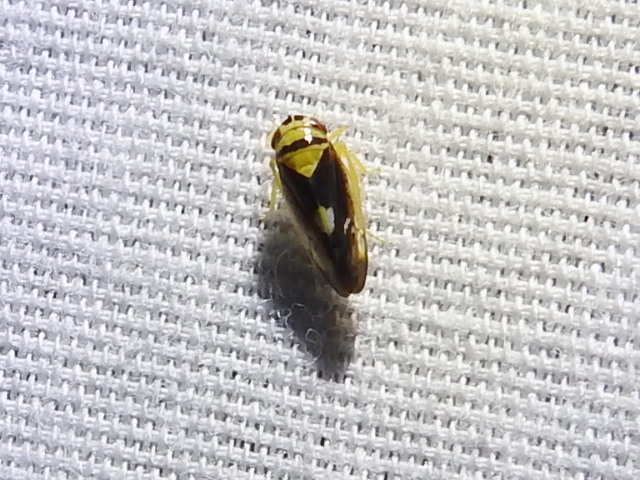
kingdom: Animalia
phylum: Arthropoda
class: Insecta
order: Hemiptera
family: Cicadellidae
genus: Eutettix
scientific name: Eutettix pictus
